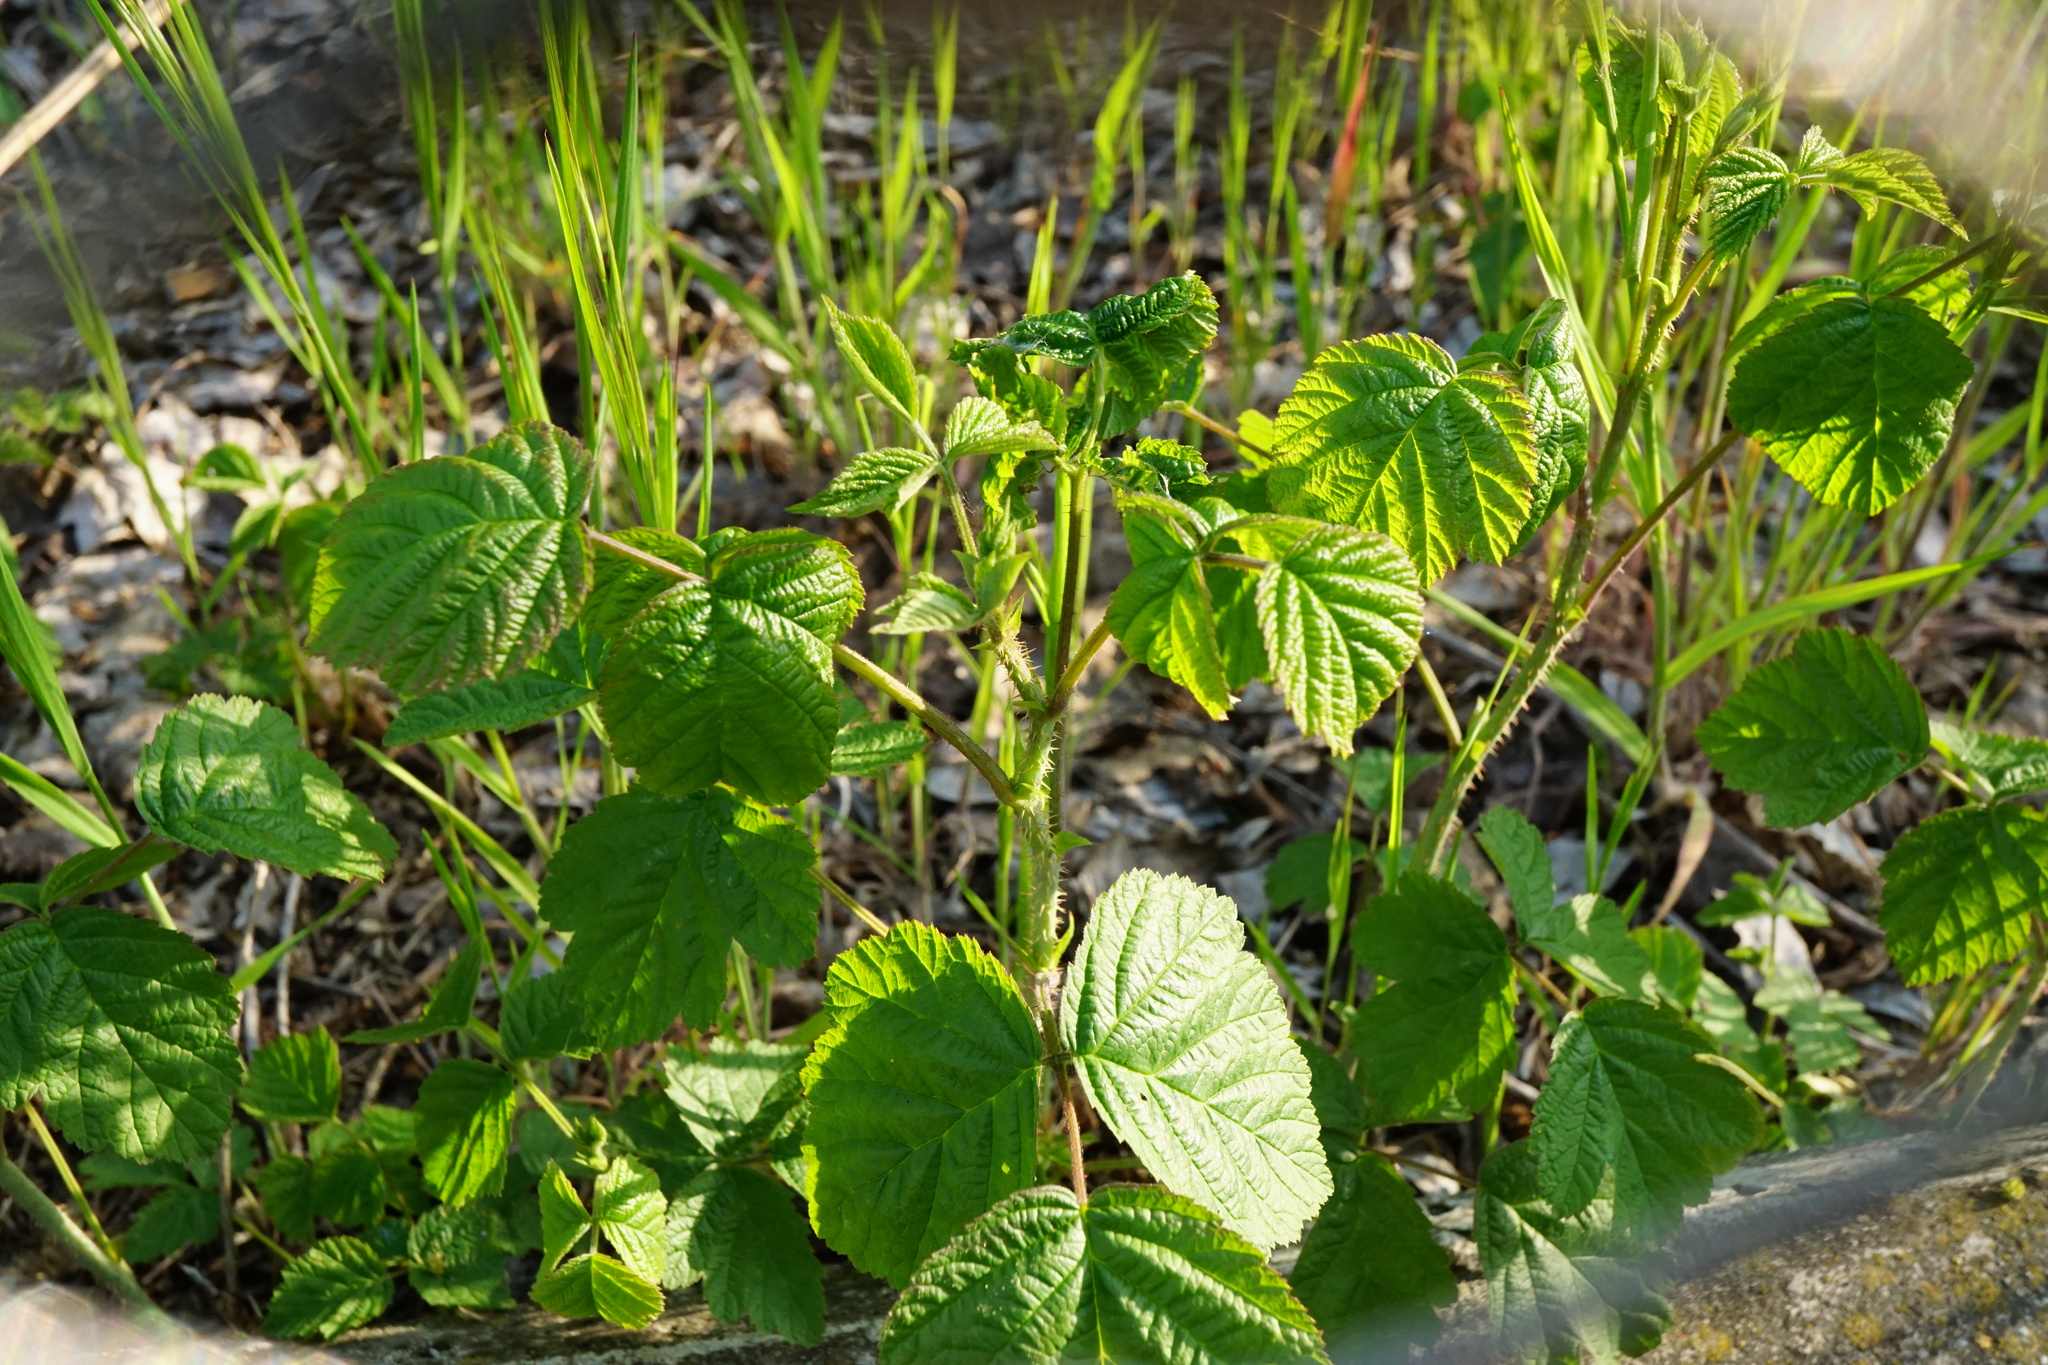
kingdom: Plantae
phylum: Tracheophyta
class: Magnoliopsida
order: Rosales
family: Rosaceae
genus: Rubus
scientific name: Rubus caesius
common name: Dewberry
